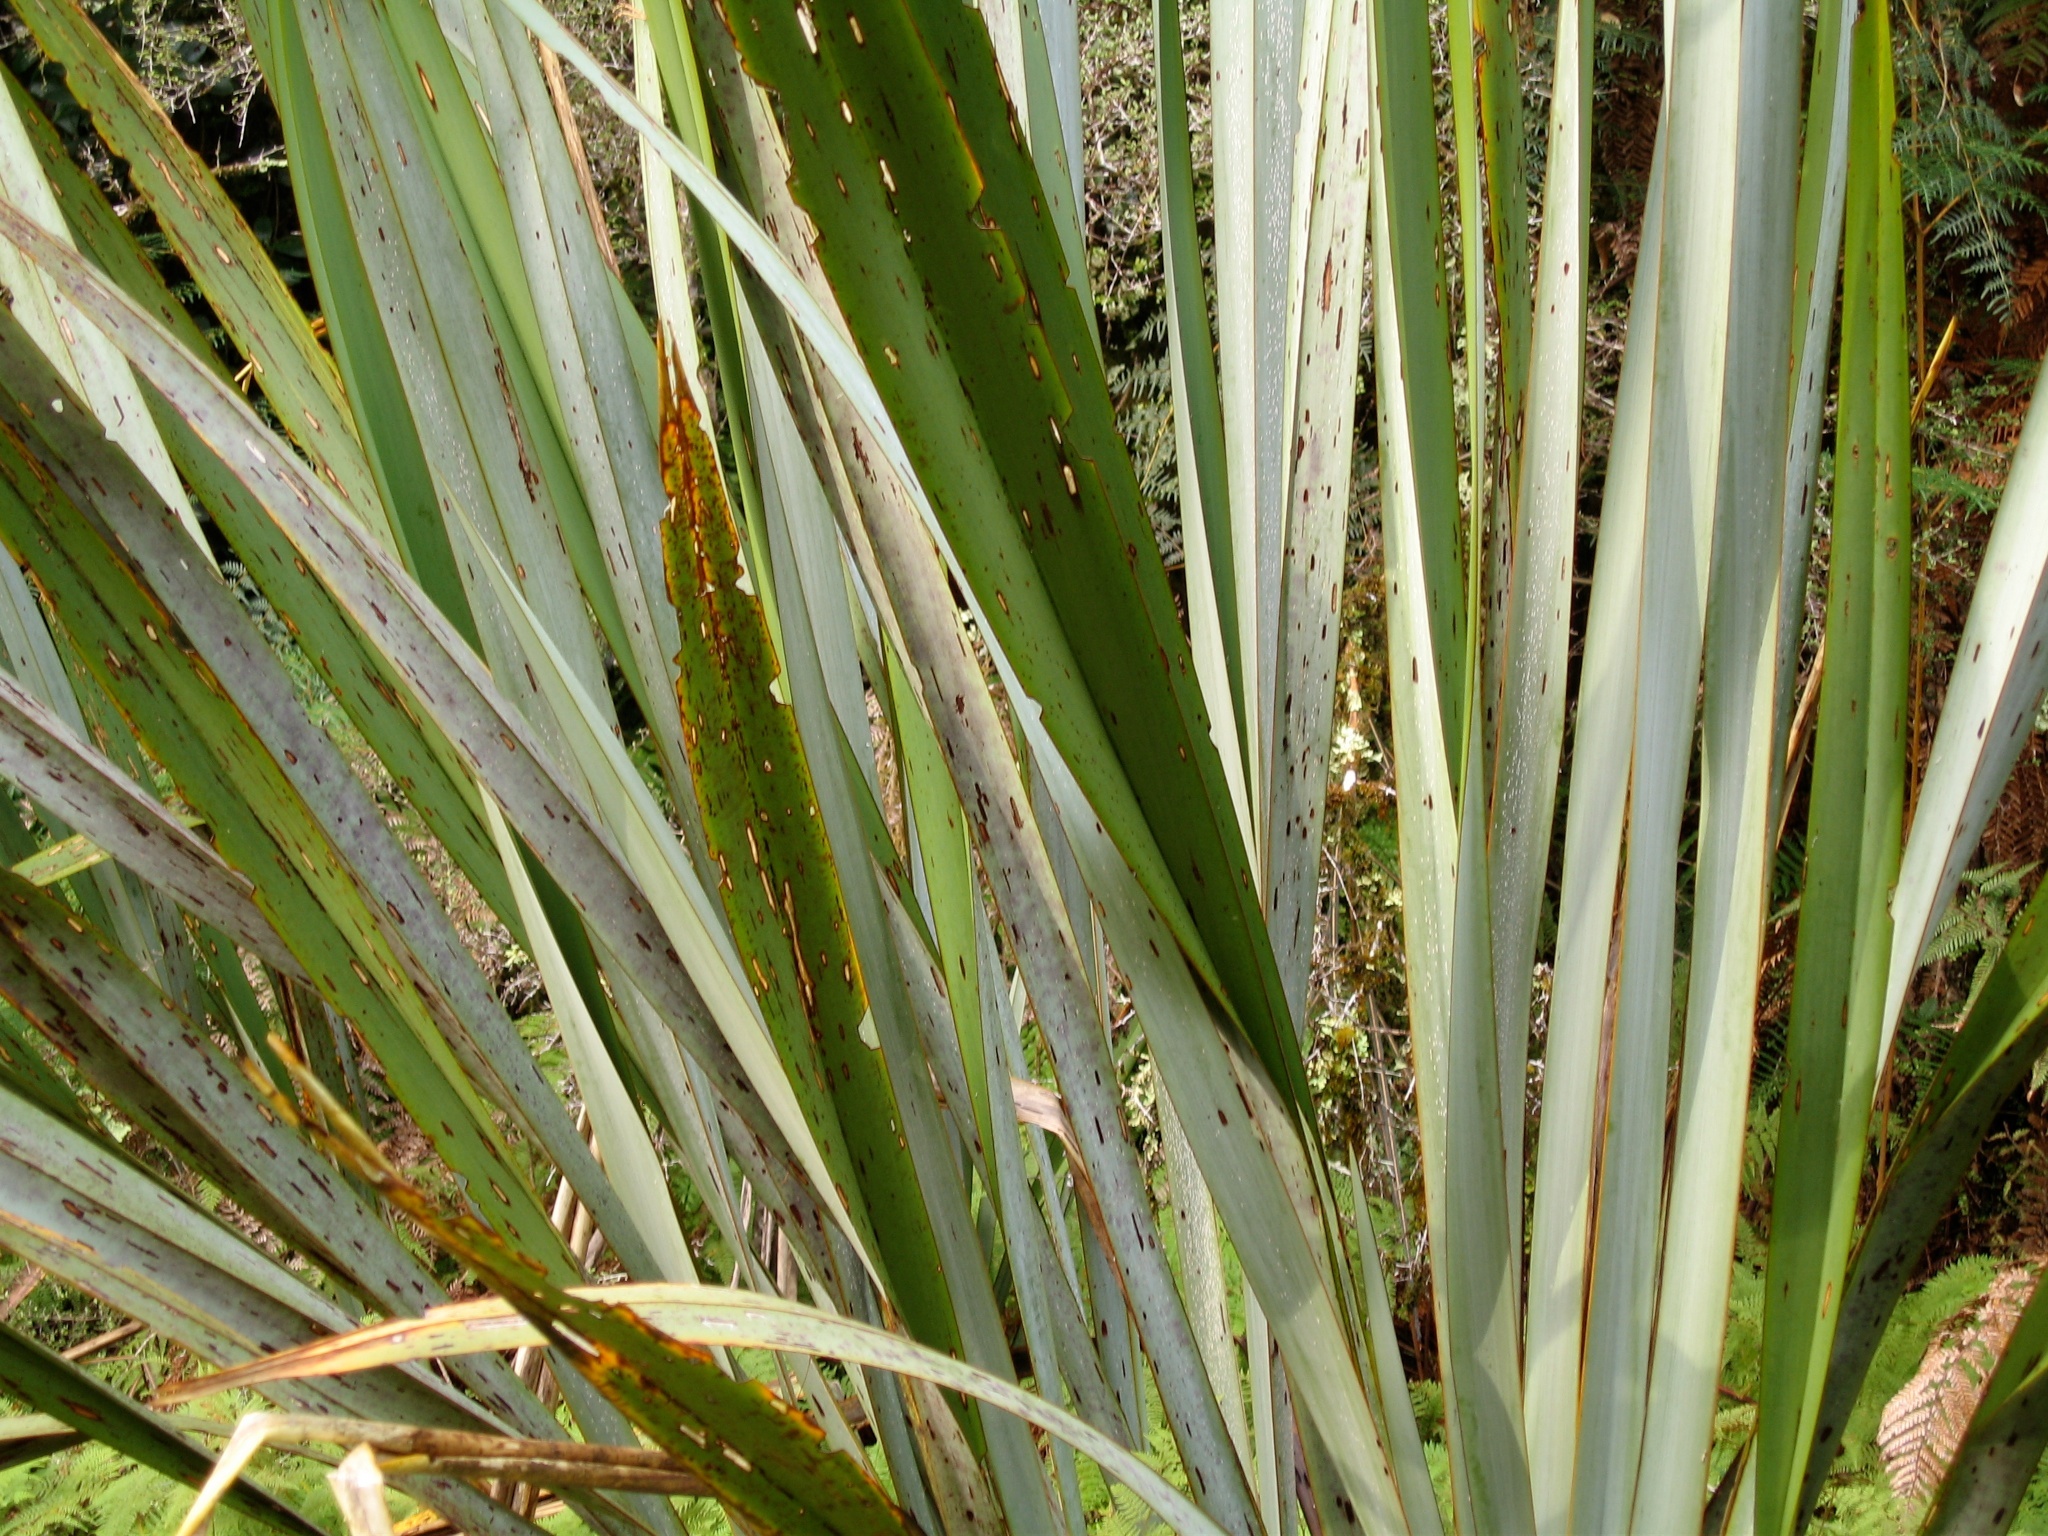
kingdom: Animalia
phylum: Arthropoda
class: Insecta
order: Lepidoptera
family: Geometridae
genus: Orthoclydon
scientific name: Orthoclydon praefectata
